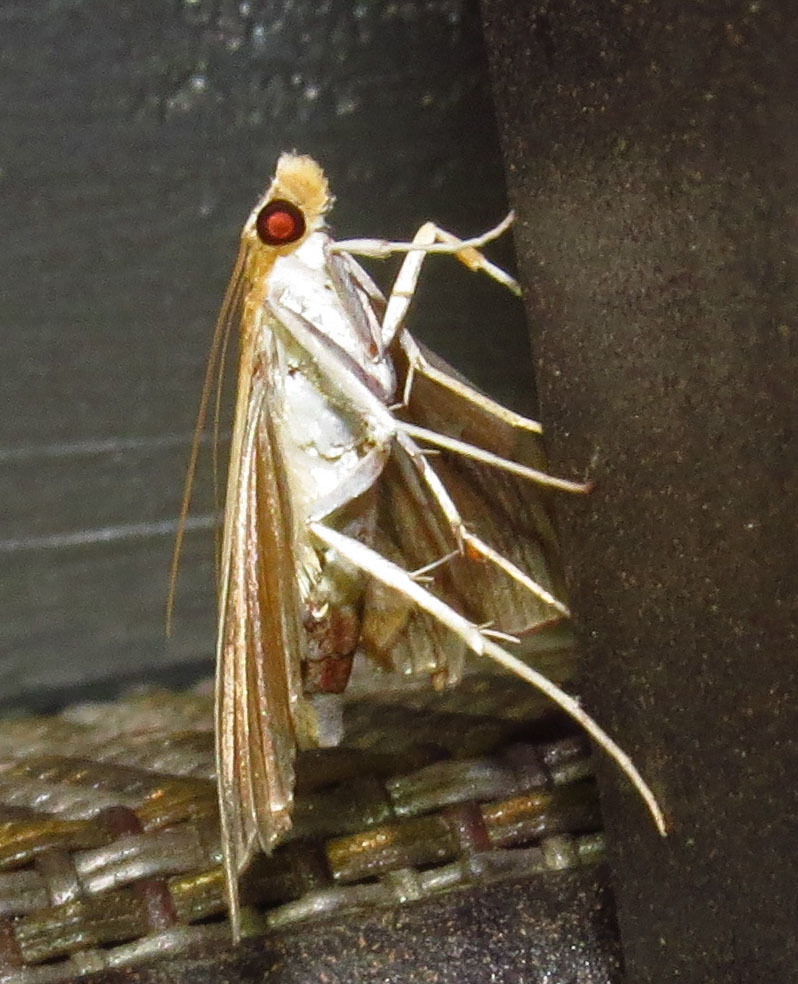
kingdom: Animalia
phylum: Arthropoda
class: Insecta
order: Lepidoptera
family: Crambidae
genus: Agathodes
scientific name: Agathodes monstralis
